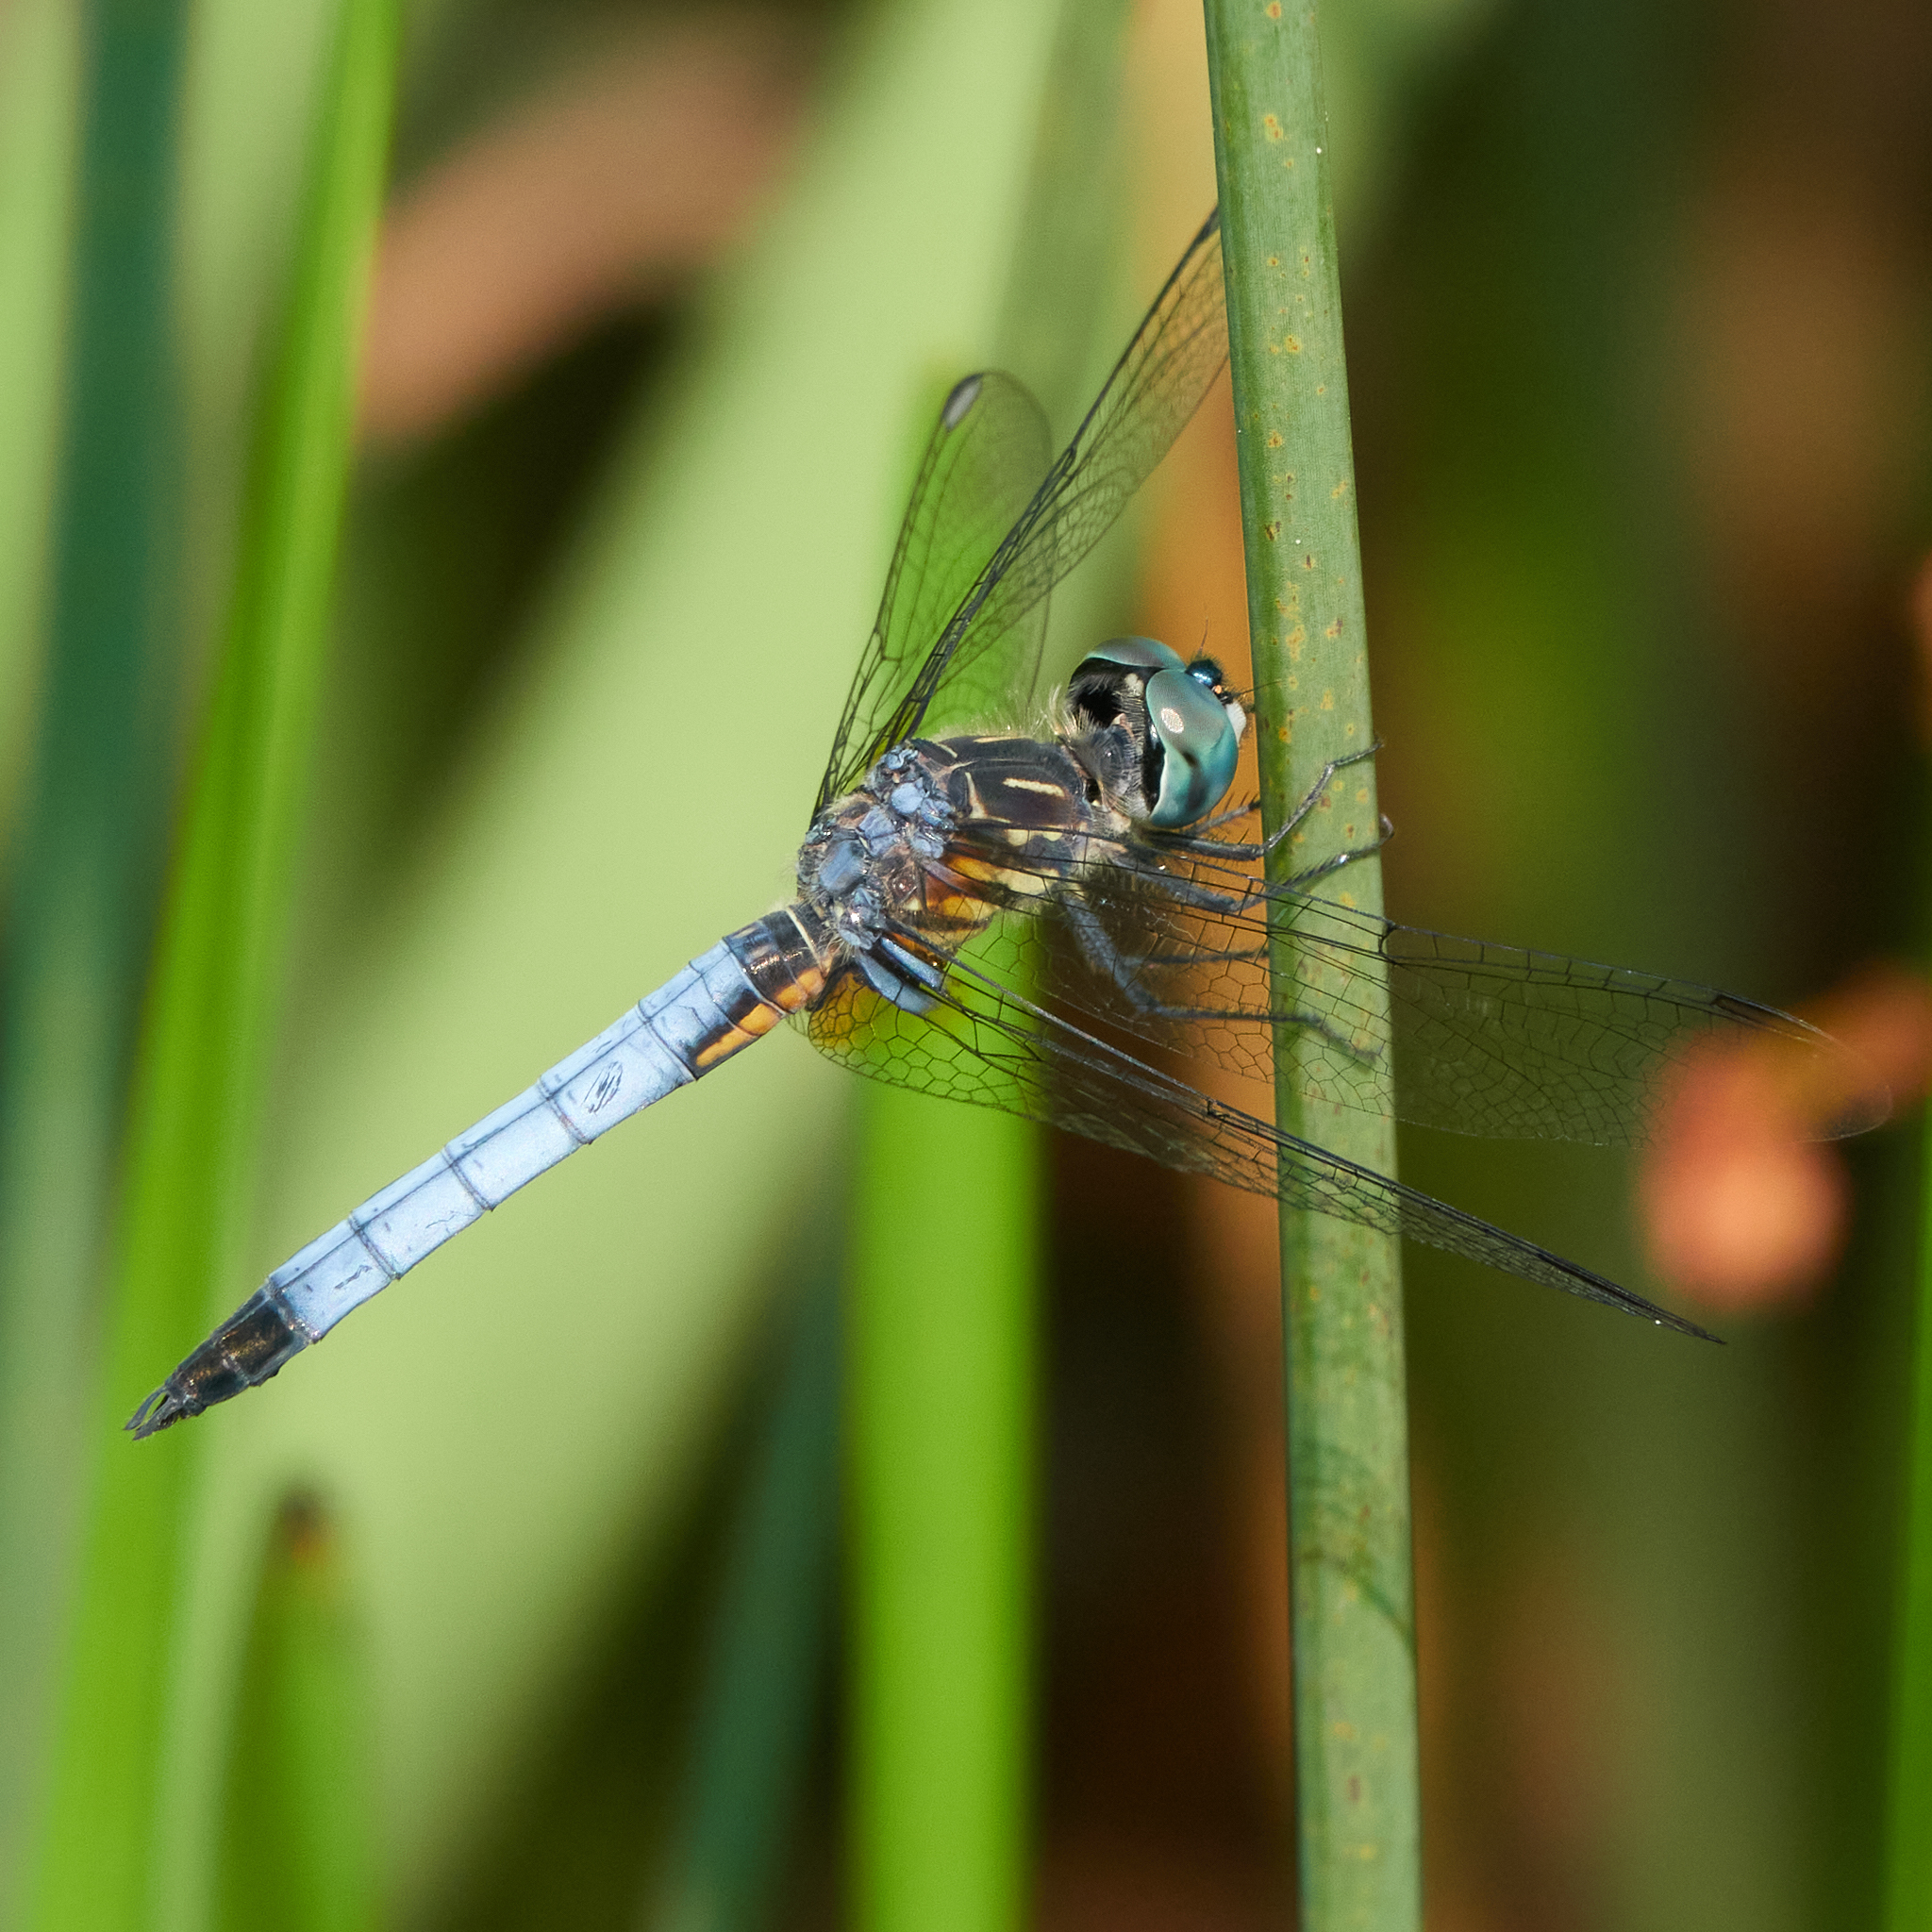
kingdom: Animalia
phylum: Arthropoda
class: Insecta
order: Odonata
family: Libellulidae
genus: Pachydiplax
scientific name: Pachydiplax longipennis
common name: Blue dasher
